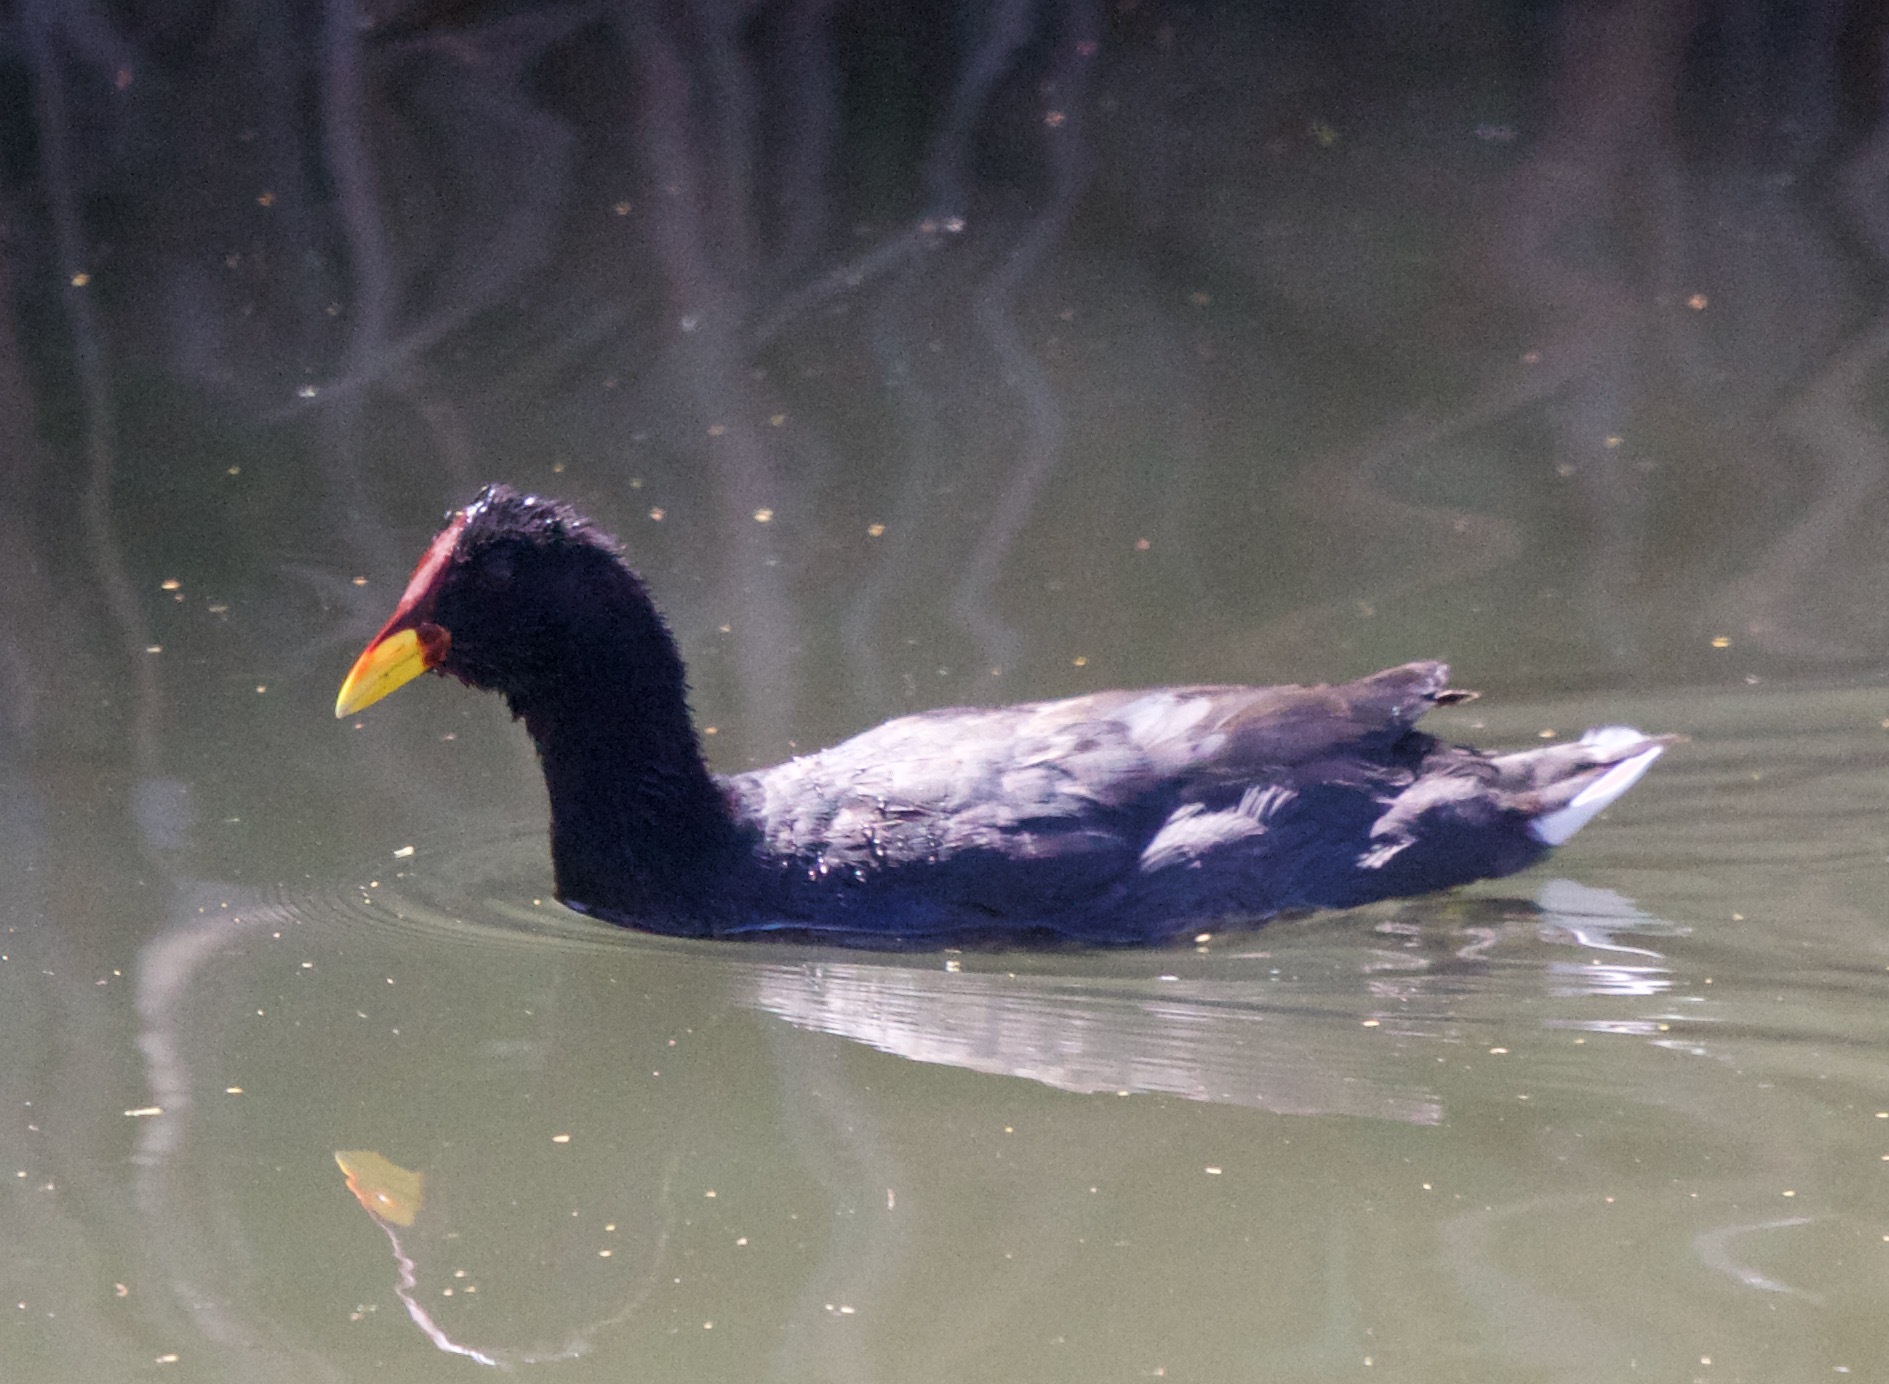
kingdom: Animalia
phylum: Chordata
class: Aves
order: Gruiformes
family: Rallidae
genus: Fulica
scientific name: Fulica rufifrons
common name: Red-fronted coot
